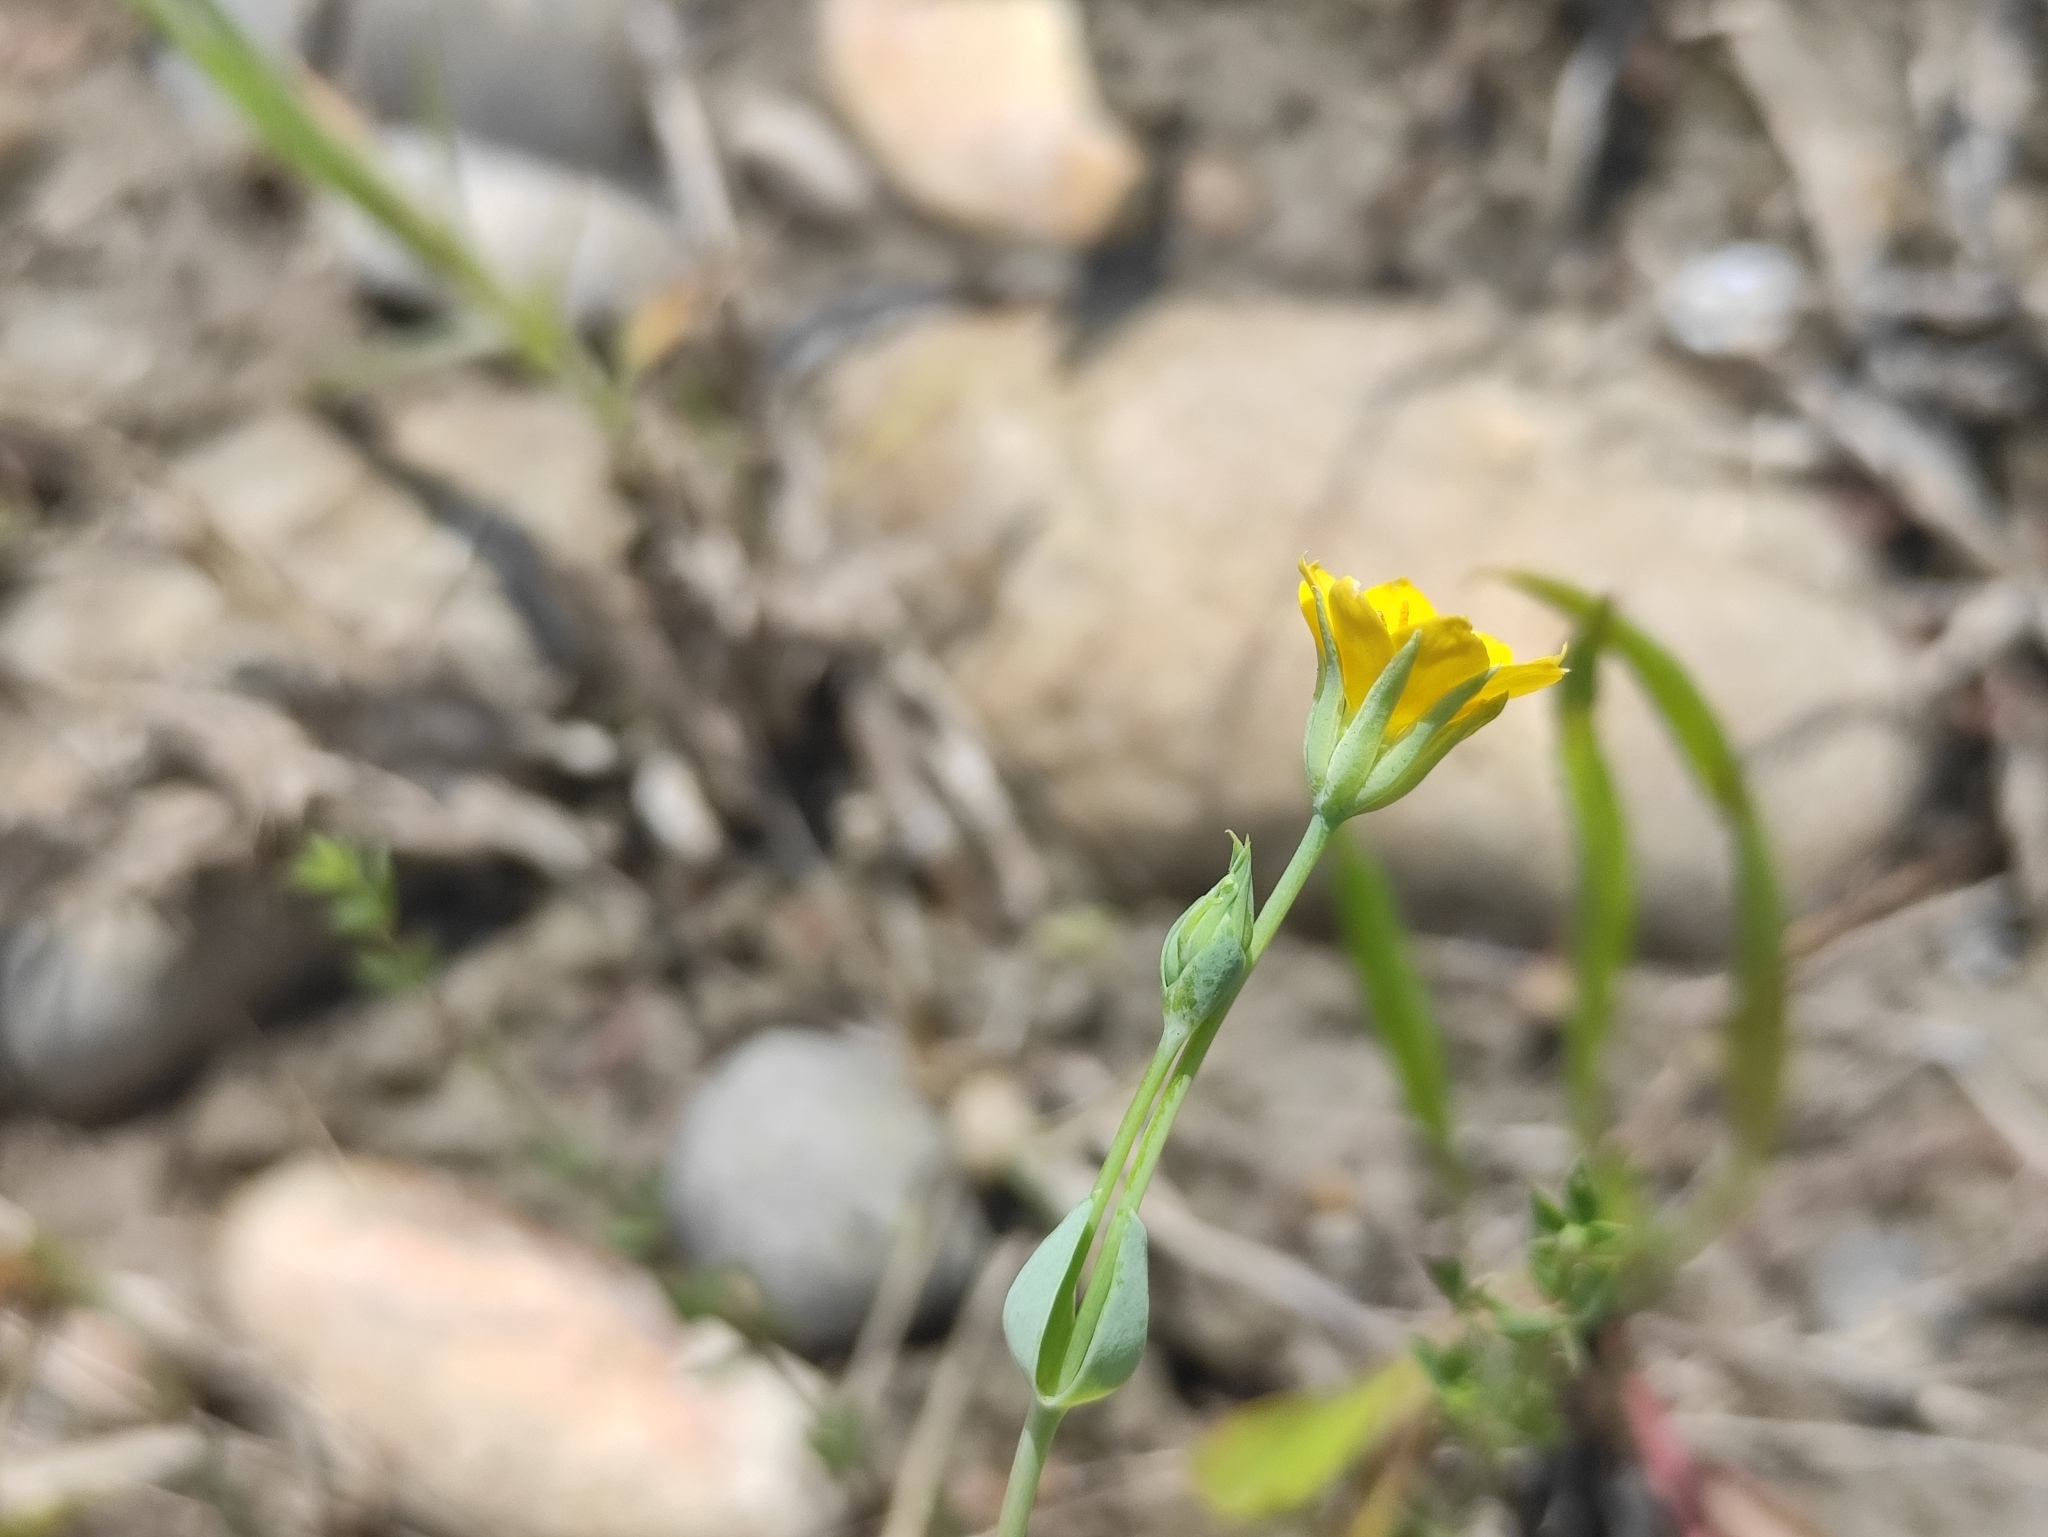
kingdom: Plantae
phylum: Tracheophyta
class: Magnoliopsida
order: Gentianales
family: Gentianaceae
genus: Blackstonia
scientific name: Blackstonia acuminata
